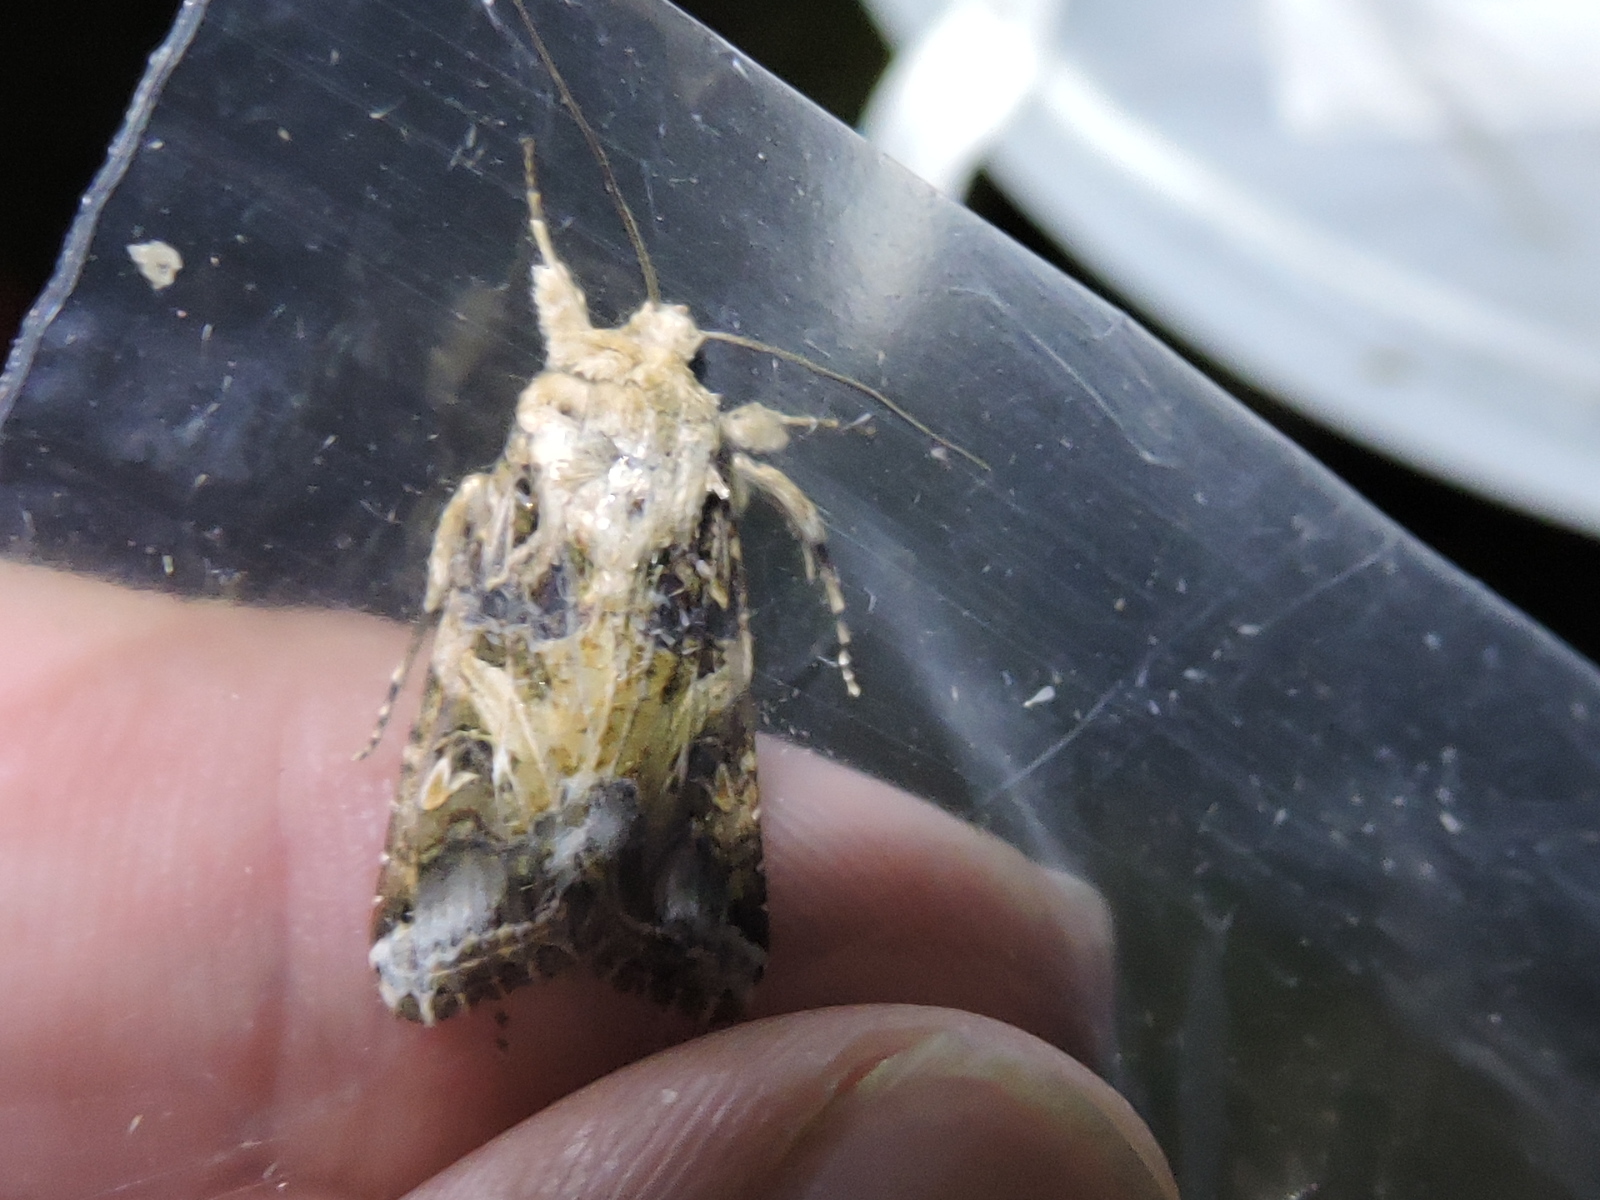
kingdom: Animalia
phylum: Arthropoda
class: Insecta
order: Lepidoptera
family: Noctuidae
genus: Spodoptera
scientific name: Spodoptera ornithogalli
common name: Yellow-striped armyworm
